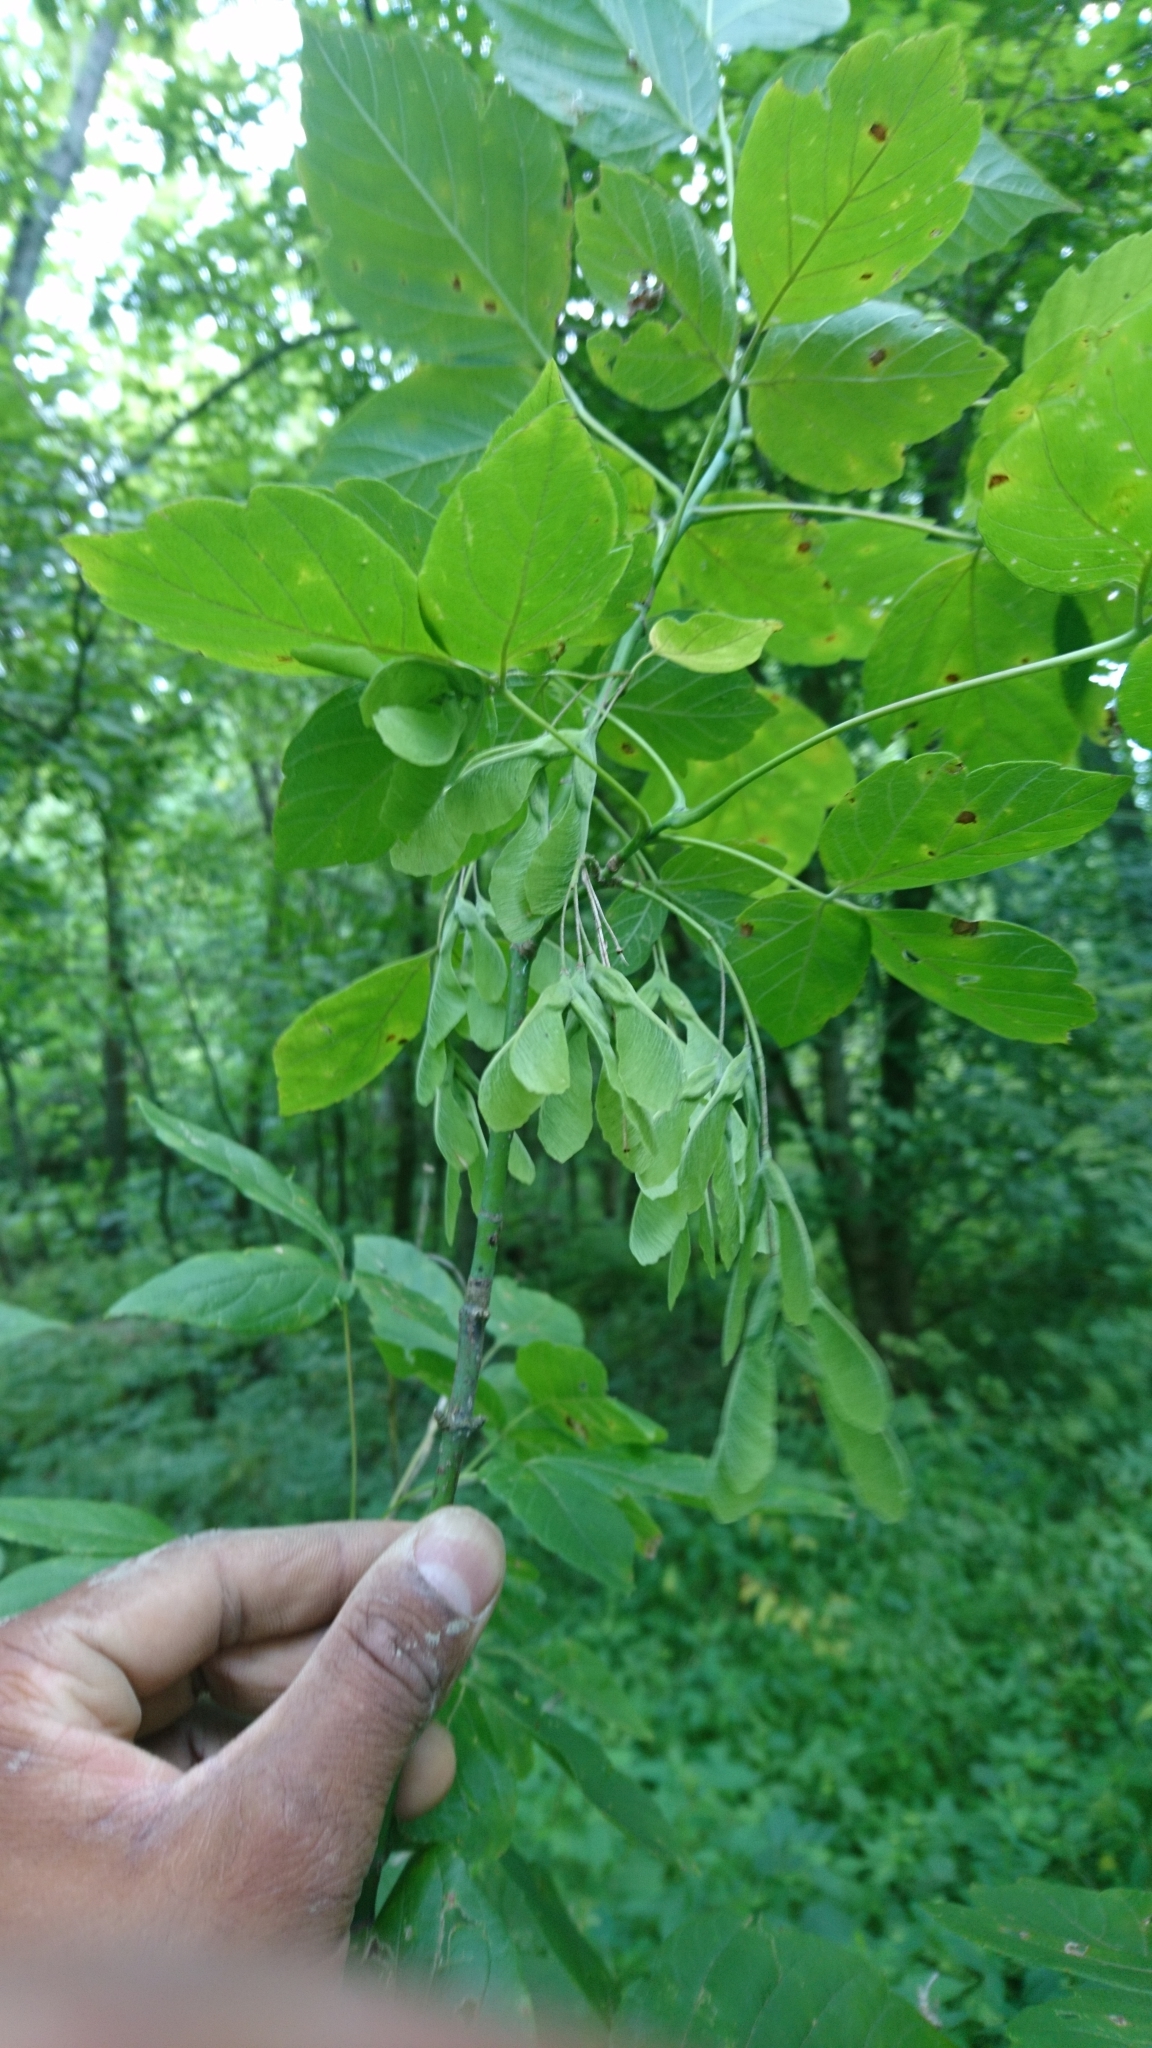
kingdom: Plantae
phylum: Tracheophyta
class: Magnoliopsida
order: Sapindales
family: Sapindaceae
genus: Acer
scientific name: Acer negundo
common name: Ashleaf maple
